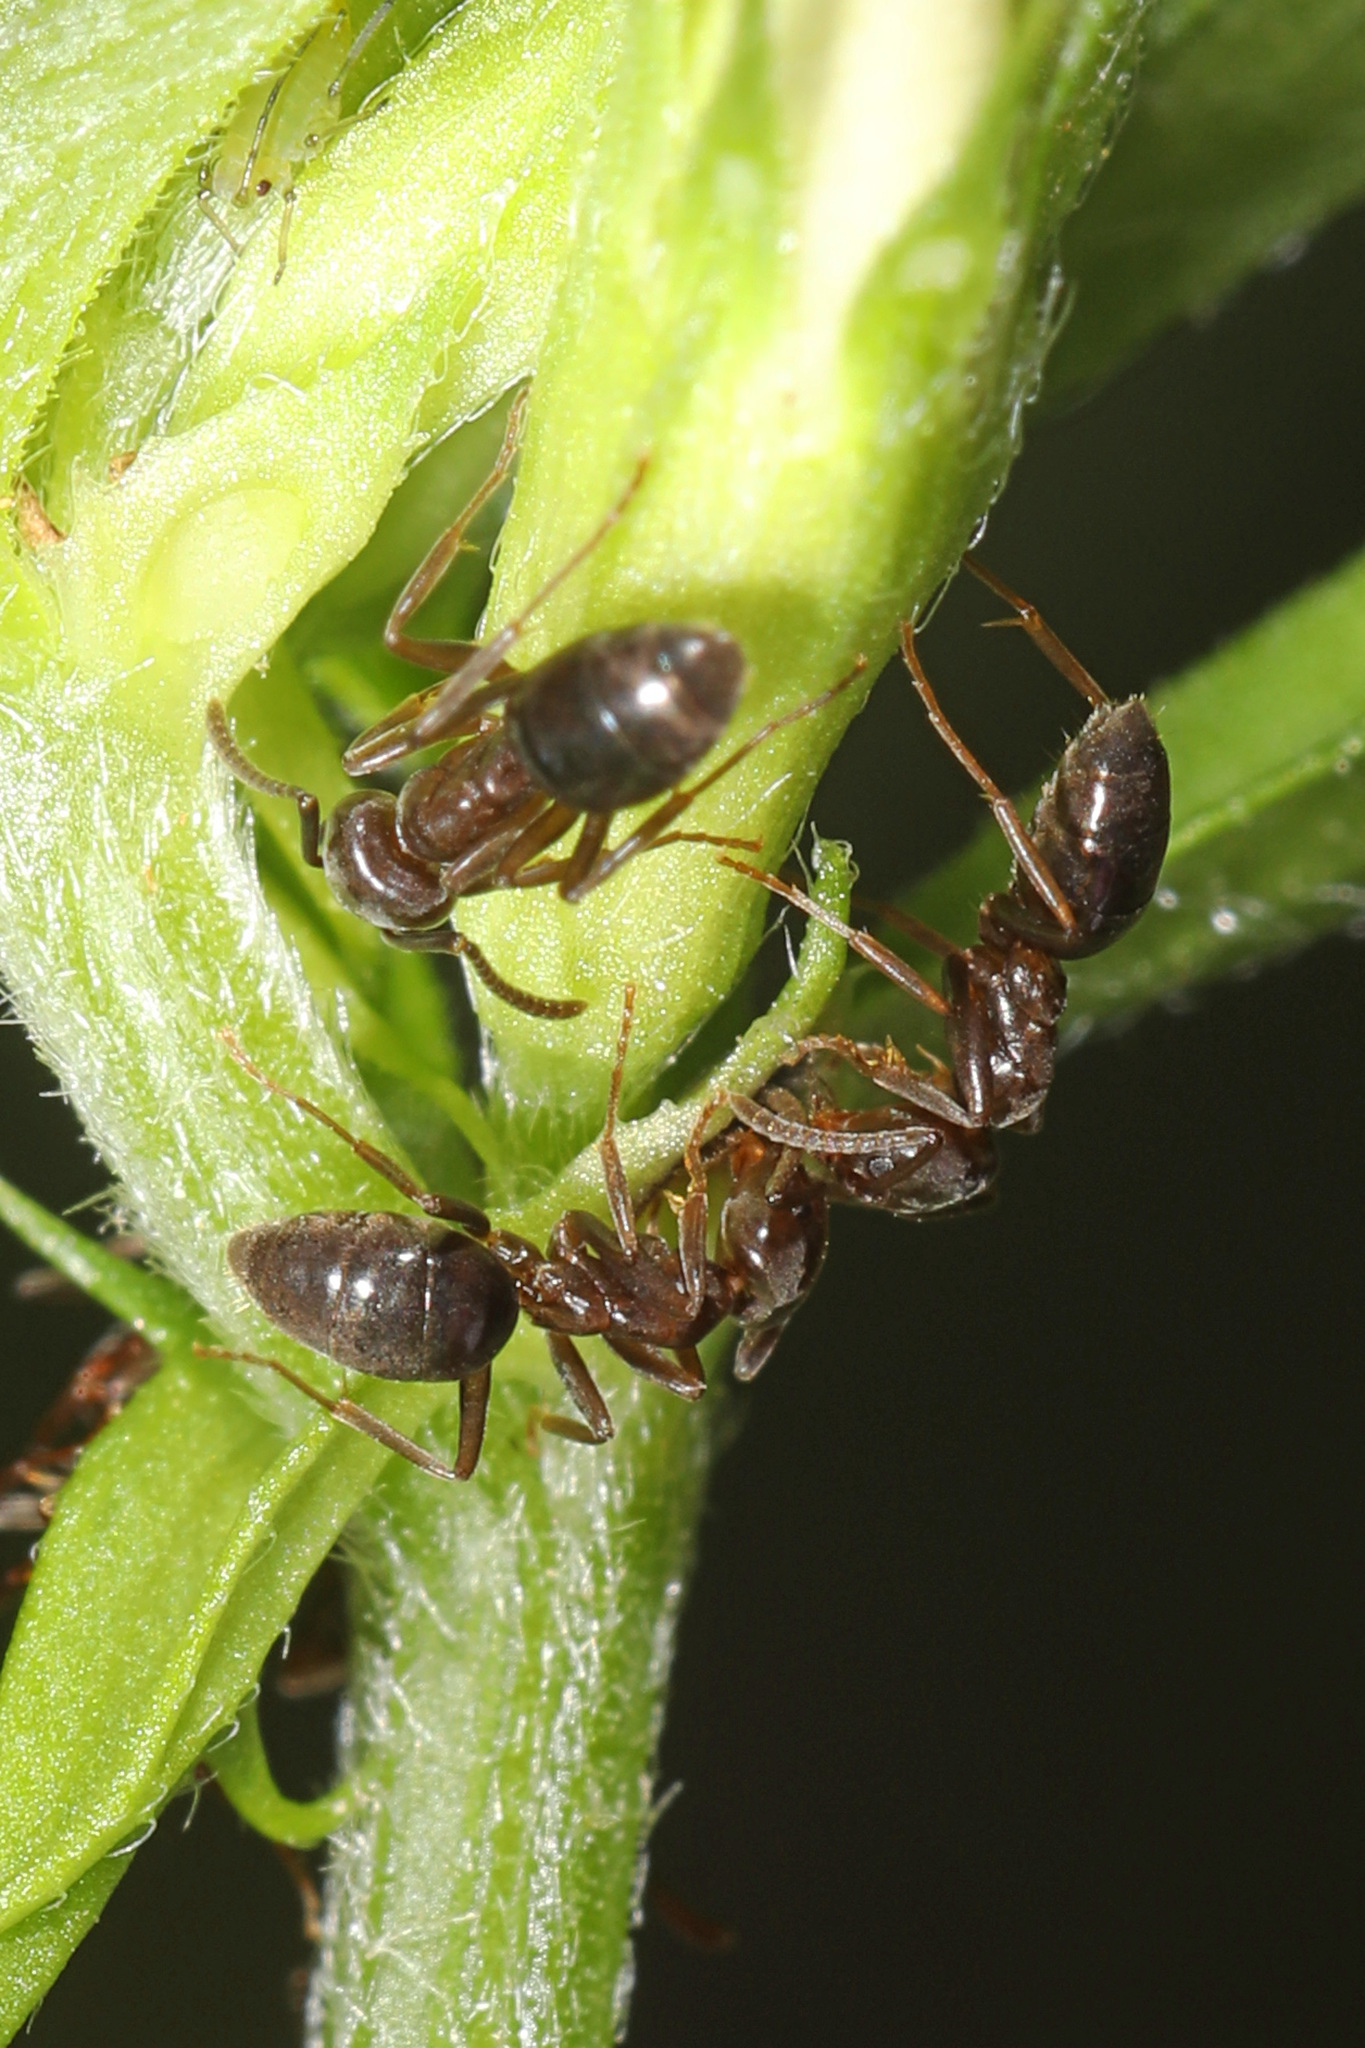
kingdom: Animalia
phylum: Arthropoda
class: Insecta
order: Hymenoptera
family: Formicidae
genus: Tapinoma
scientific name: Tapinoma sessile
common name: Odorous house ant
